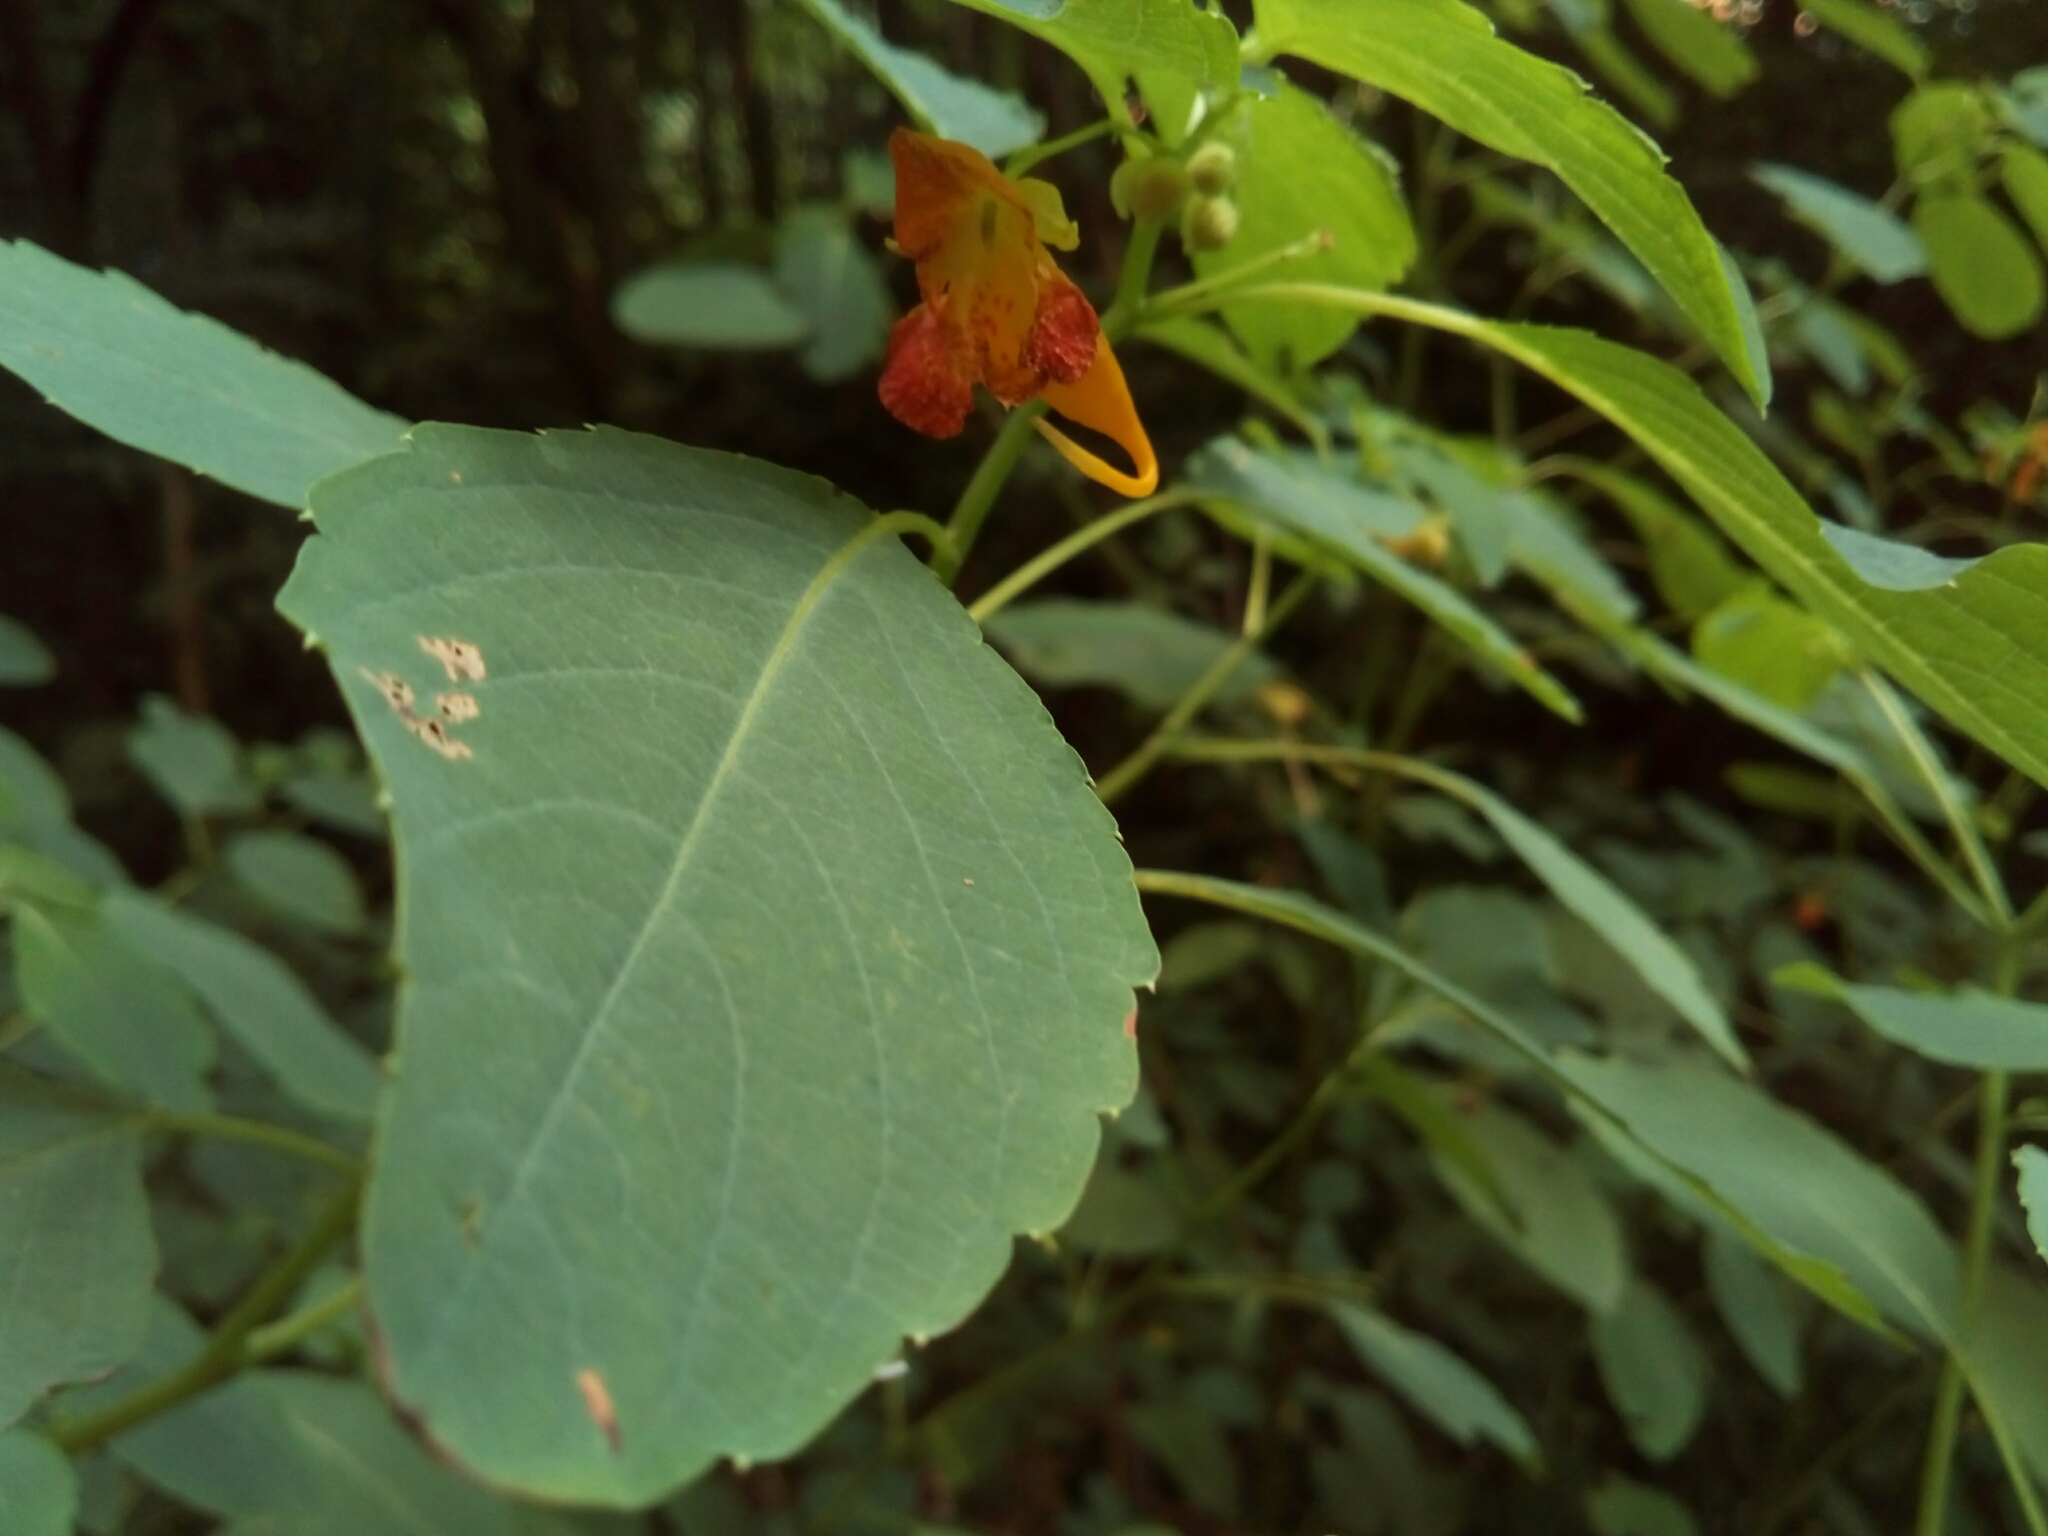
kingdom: Plantae
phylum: Tracheophyta
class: Magnoliopsida
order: Ericales
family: Balsaminaceae
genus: Impatiens
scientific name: Impatiens capensis
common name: Orange balsam
